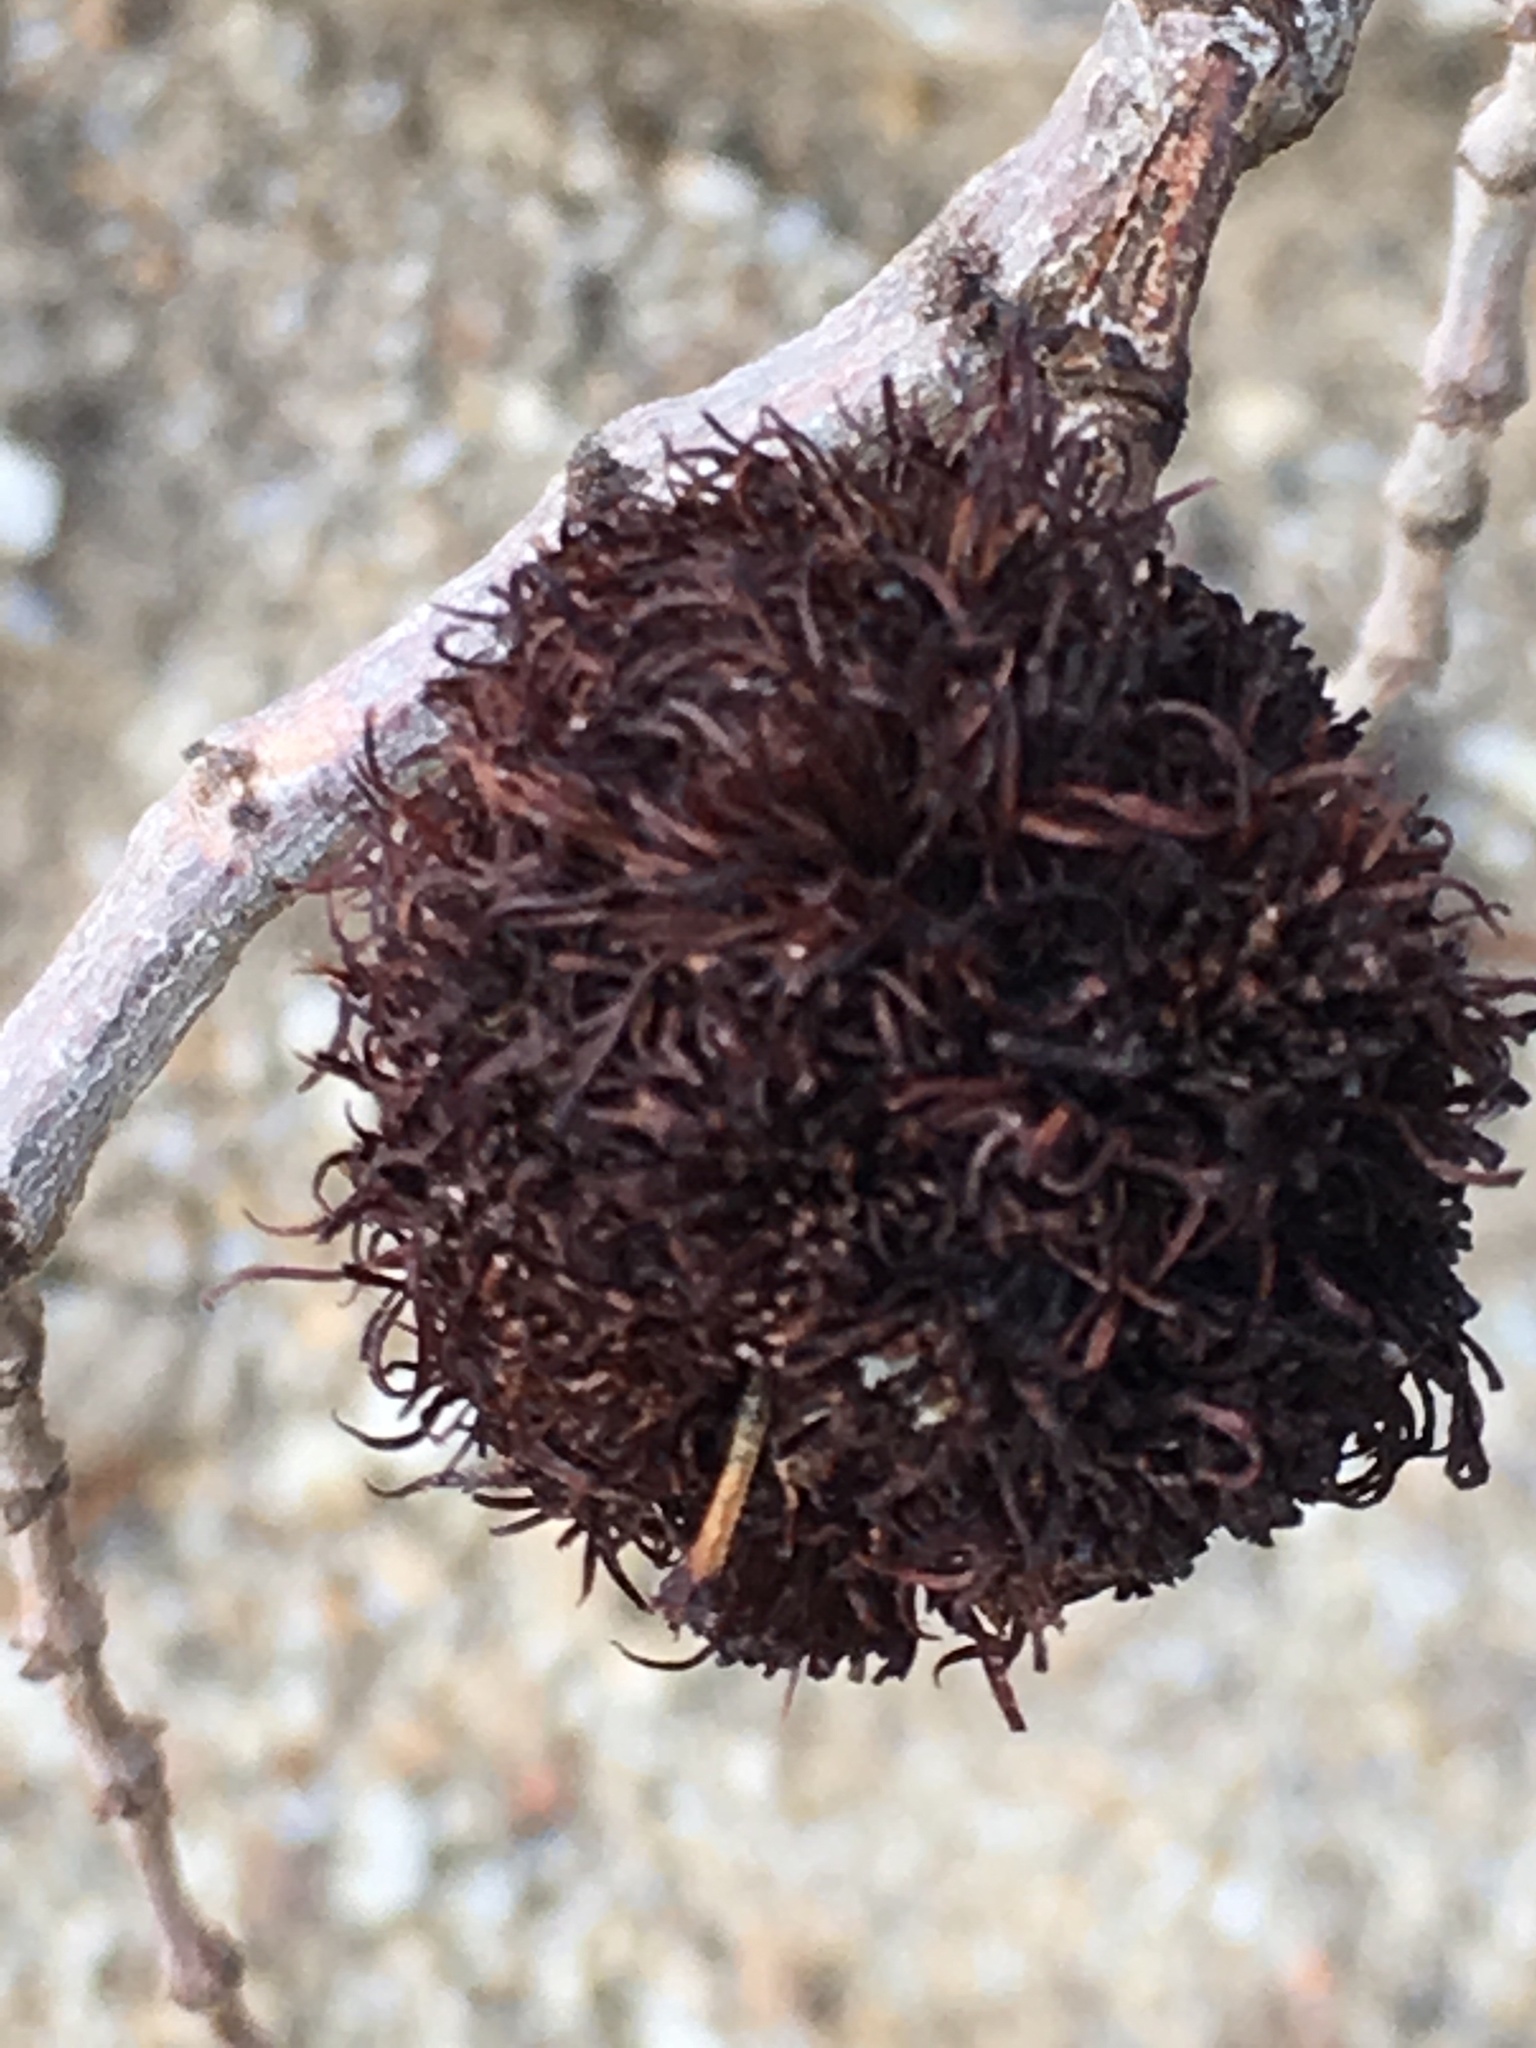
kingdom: Animalia
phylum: Arthropoda
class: Insecta
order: Diptera
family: Cecidomyiidae
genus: Asphondylia
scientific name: Asphondylia auripila
